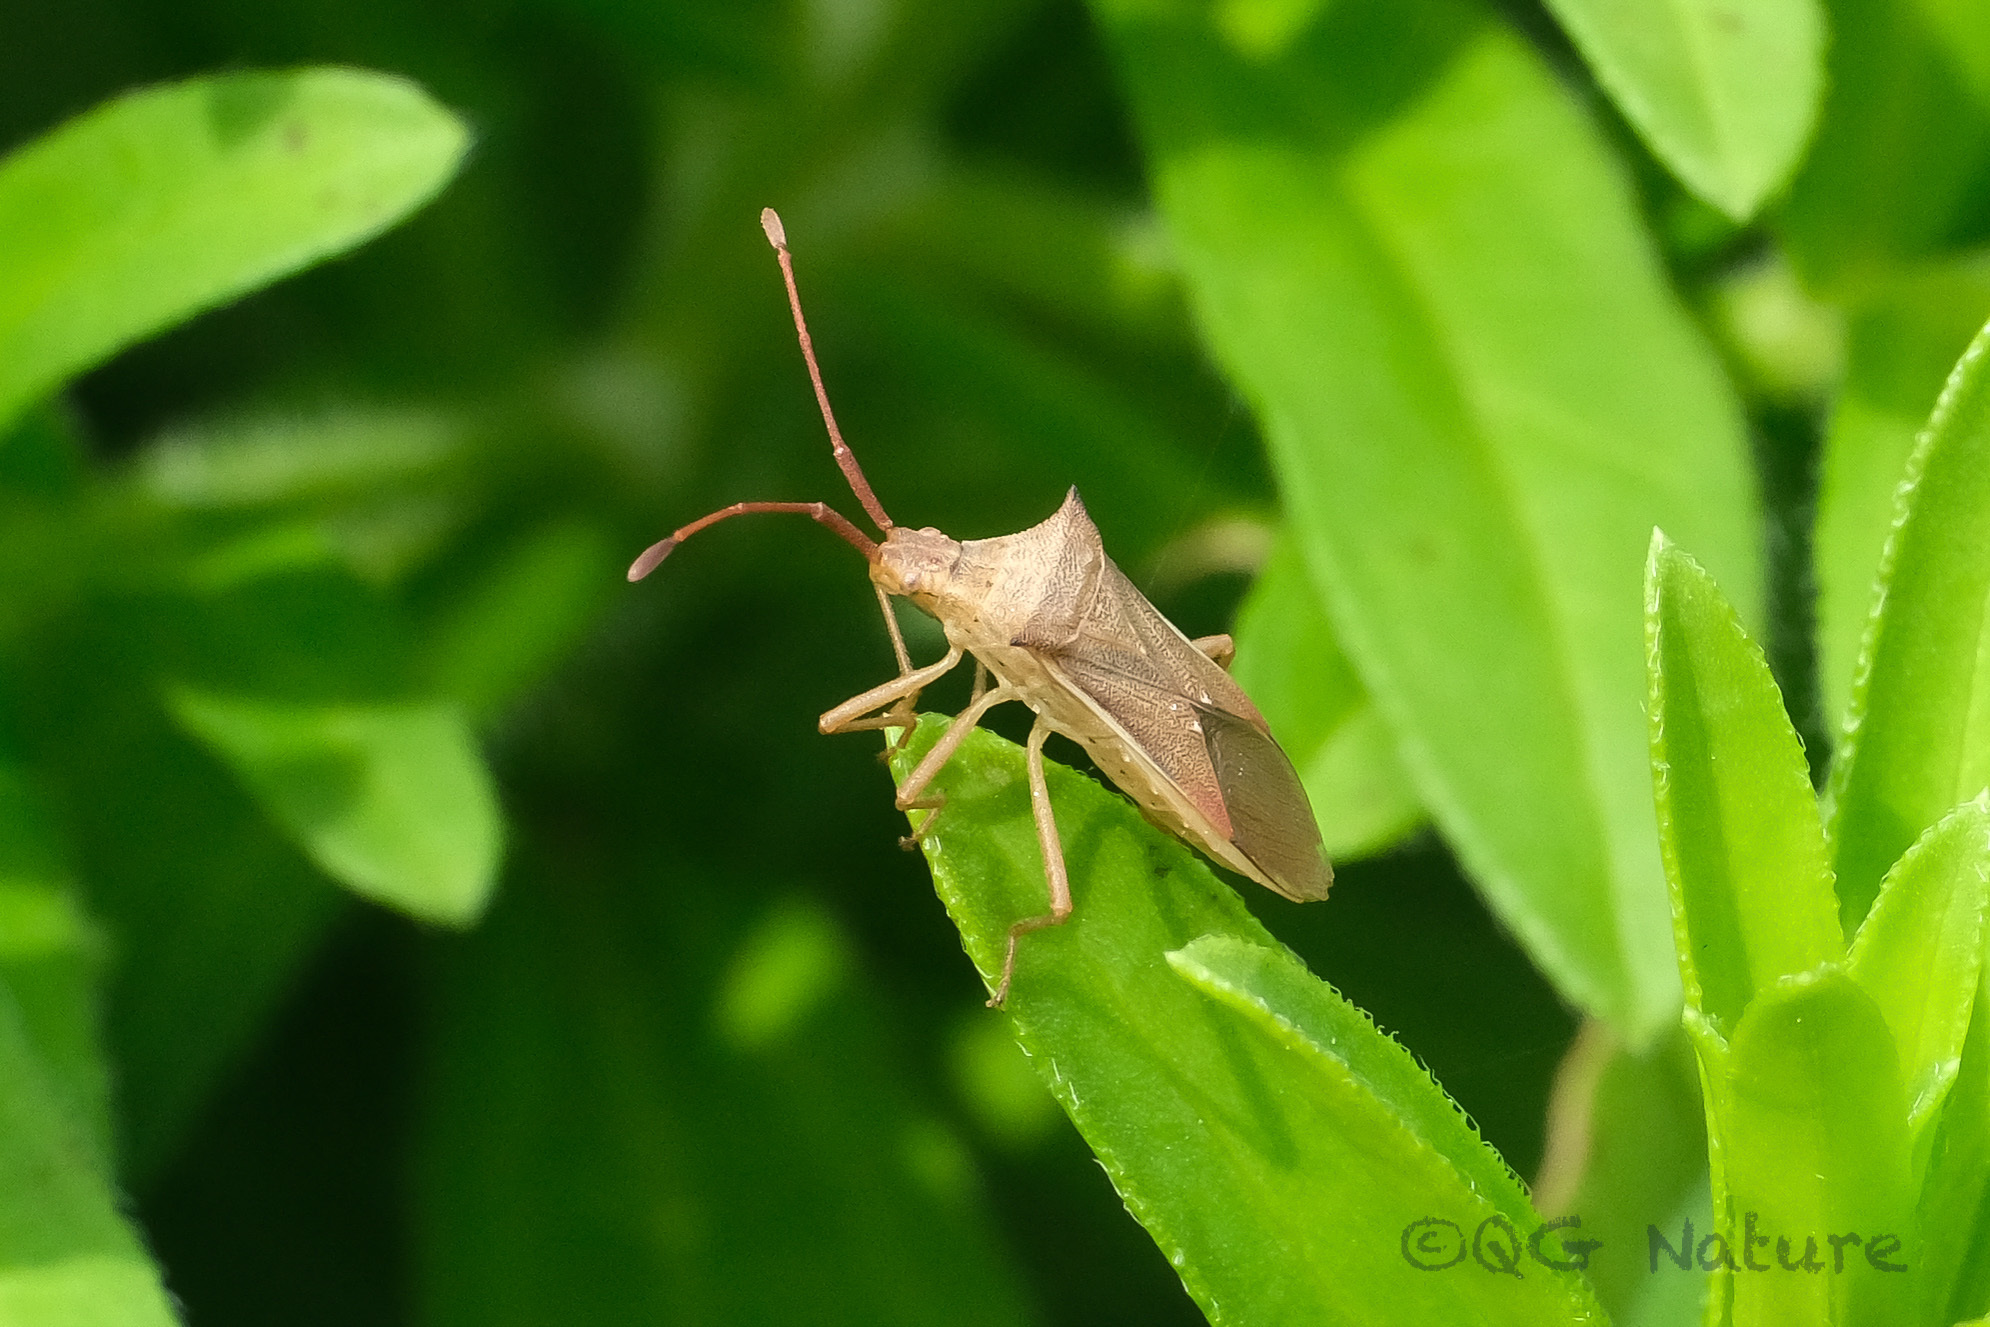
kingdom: Animalia
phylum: Arthropoda
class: Insecta
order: Hemiptera
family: Coreidae
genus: Cletus
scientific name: Cletus punctiger
